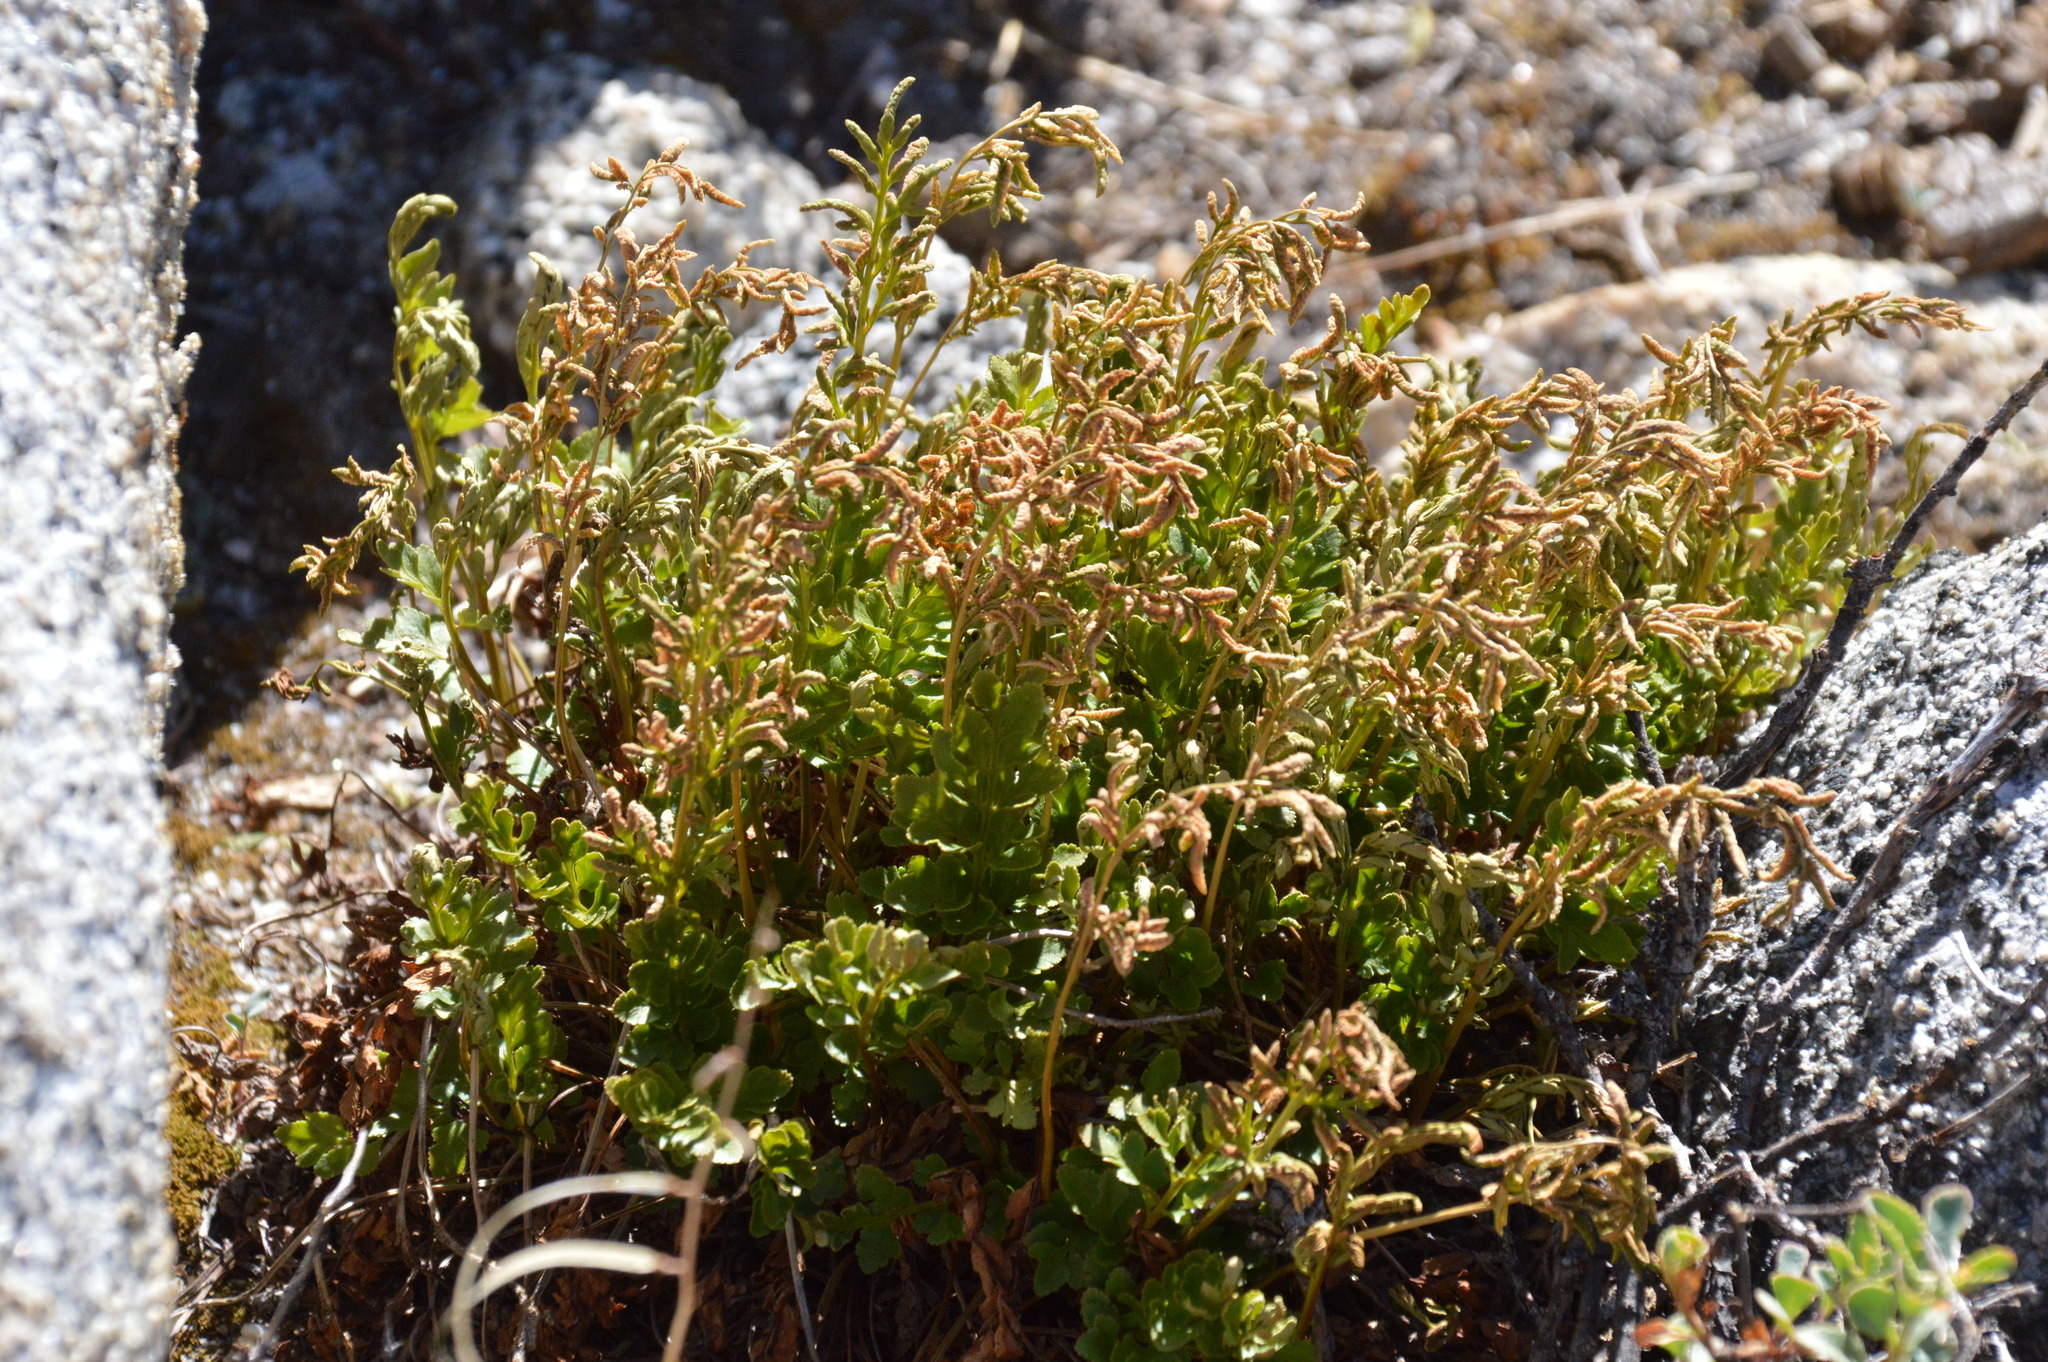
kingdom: Plantae
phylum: Tracheophyta
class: Polypodiopsida
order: Polypodiales
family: Pteridaceae
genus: Cryptogramma
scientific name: Cryptogramma acrostichoides
